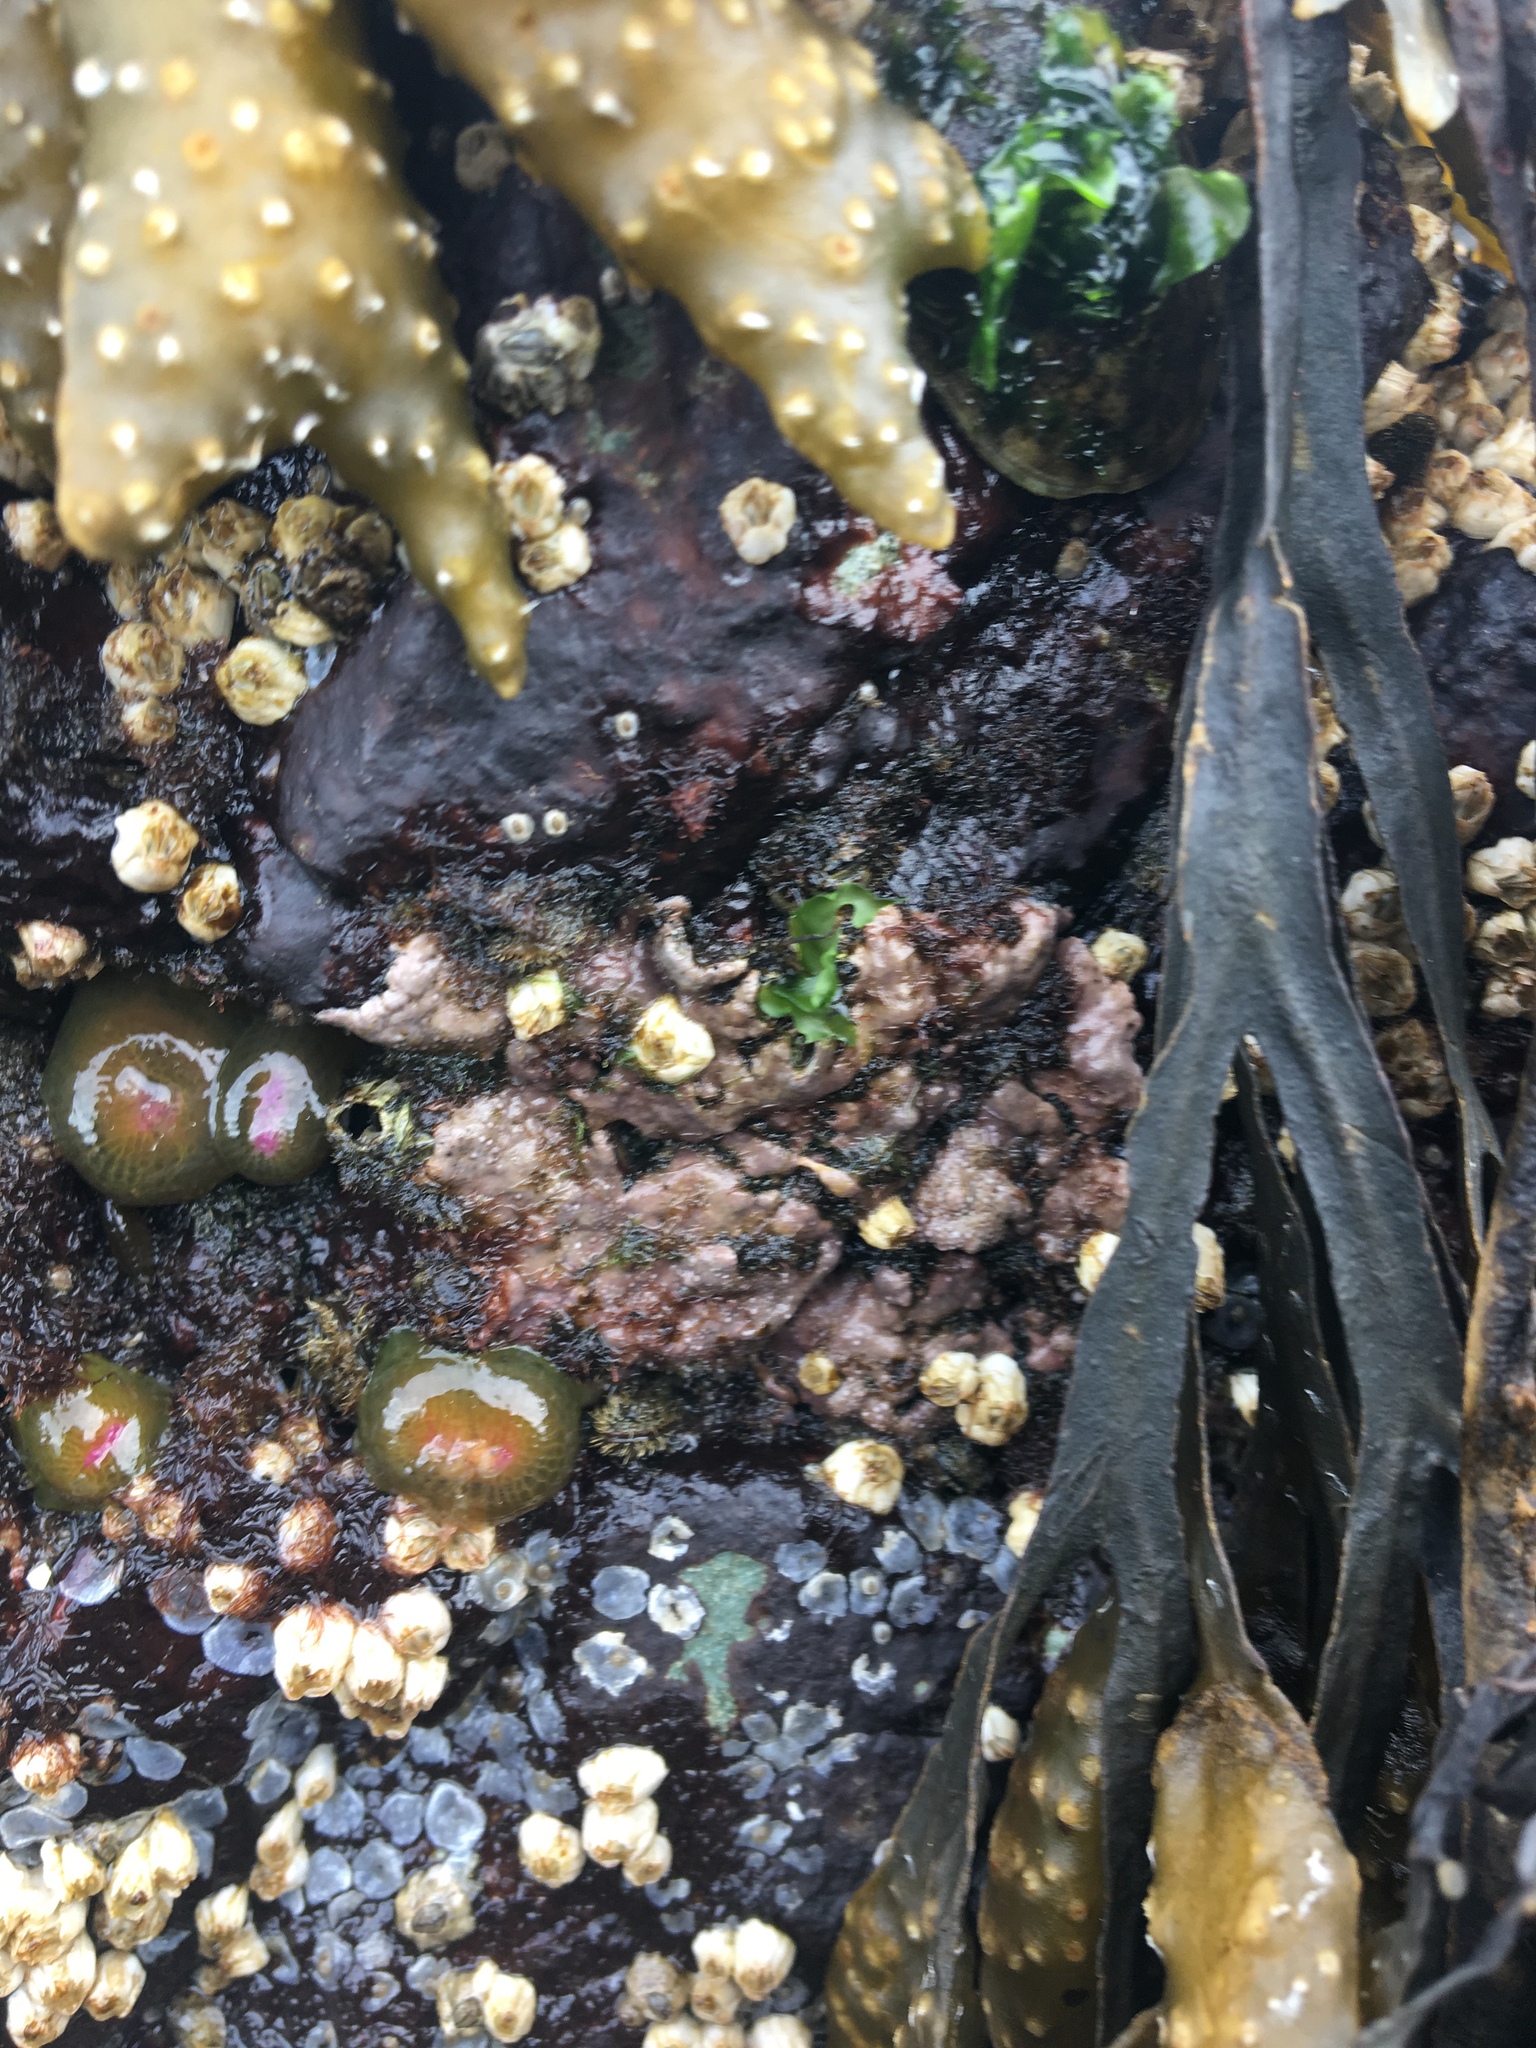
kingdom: Plantae
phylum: Rhodophyta
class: Florideophyceae
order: Corallinales
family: Corallinaceae
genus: Chamberlainium
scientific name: Chamberlainium tumidum
